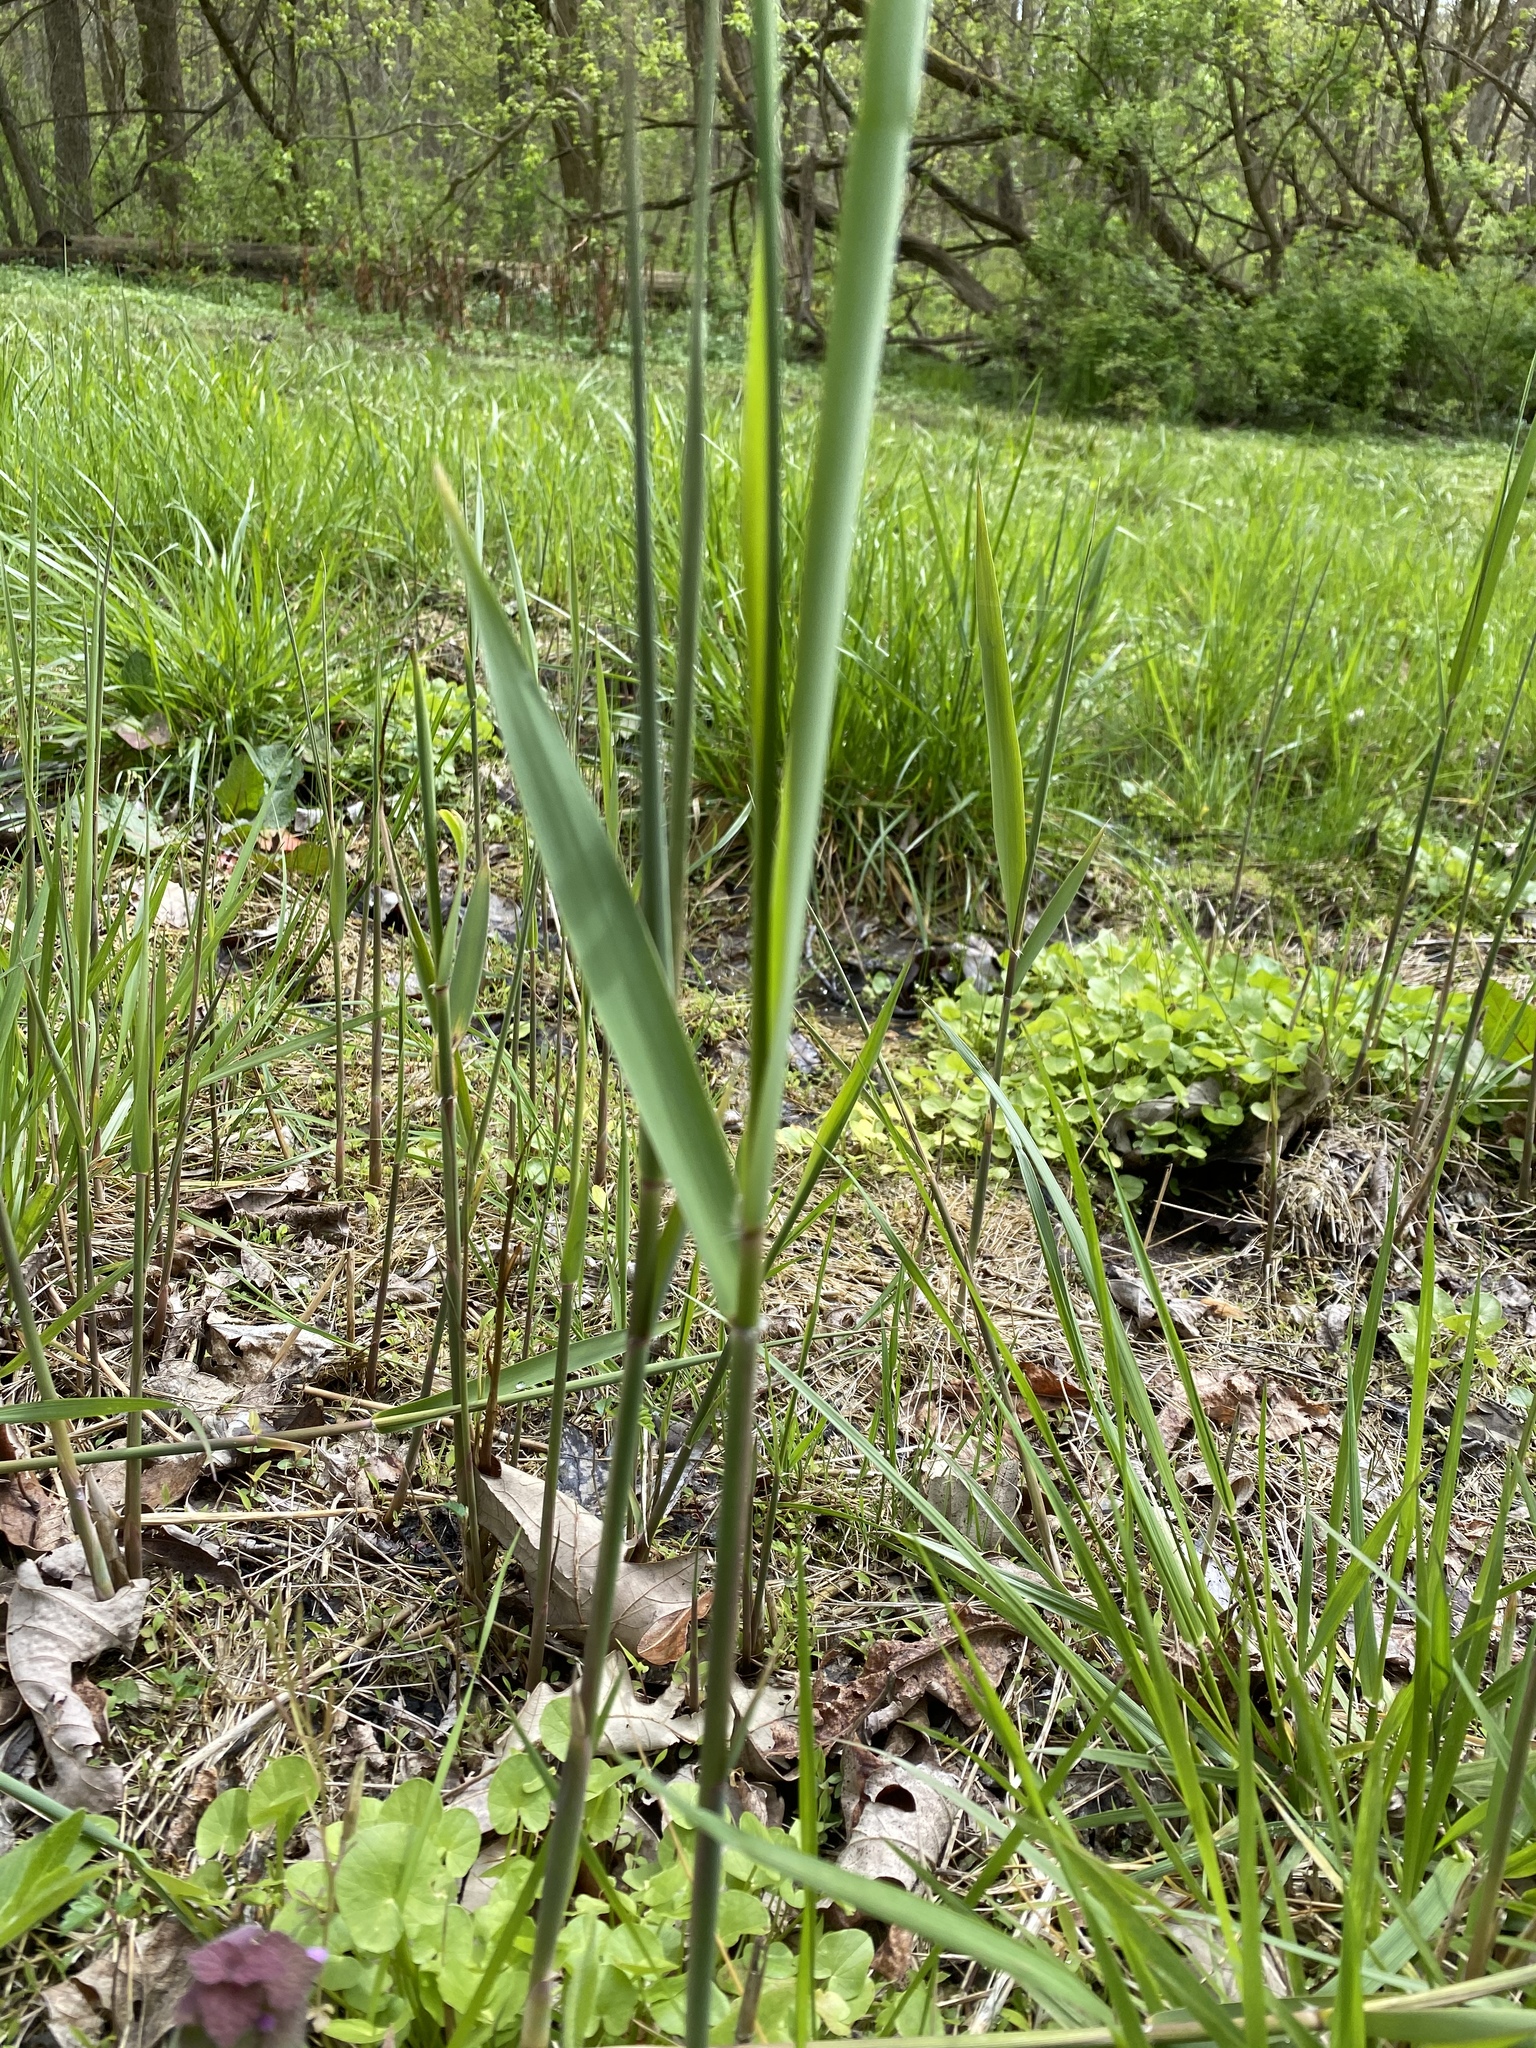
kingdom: Plantae
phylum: Tracheophyta
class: Liliopsida
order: Poales
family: Poaceae
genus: Phragmites
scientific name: Phragmites australis
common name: Common reed
